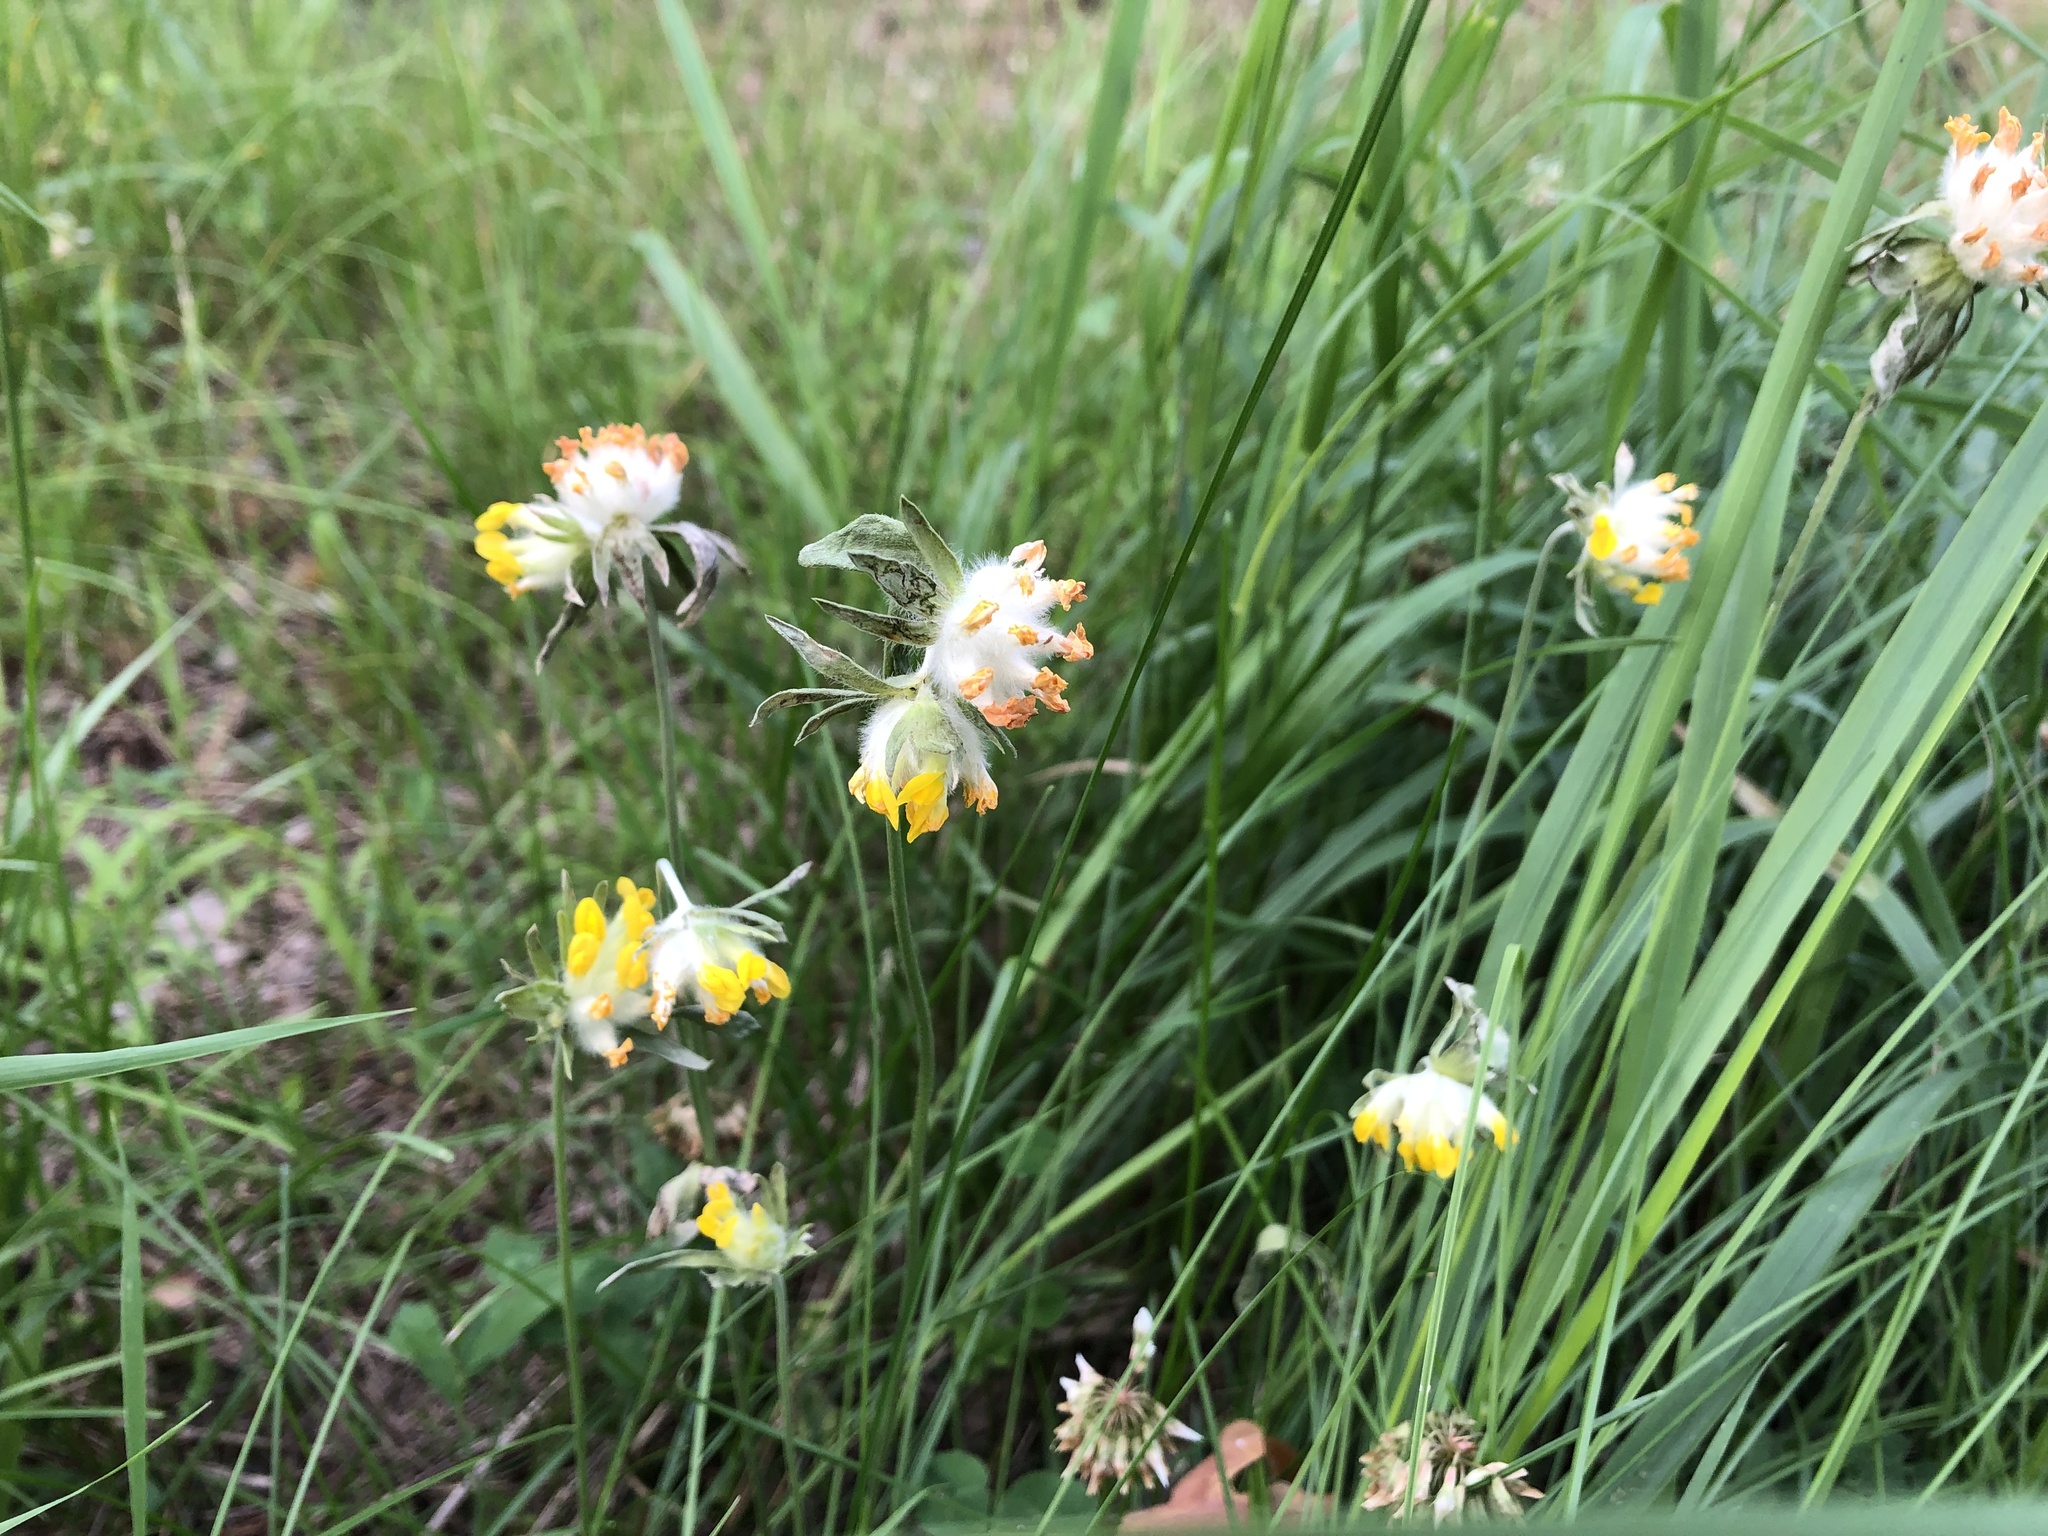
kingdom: Plantae
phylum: Tracheophyta
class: Magnoliopsida
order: Fabales
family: Fabaceae
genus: Anthyllis
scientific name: Anthyllis vulneraria
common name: Kidney vetch
